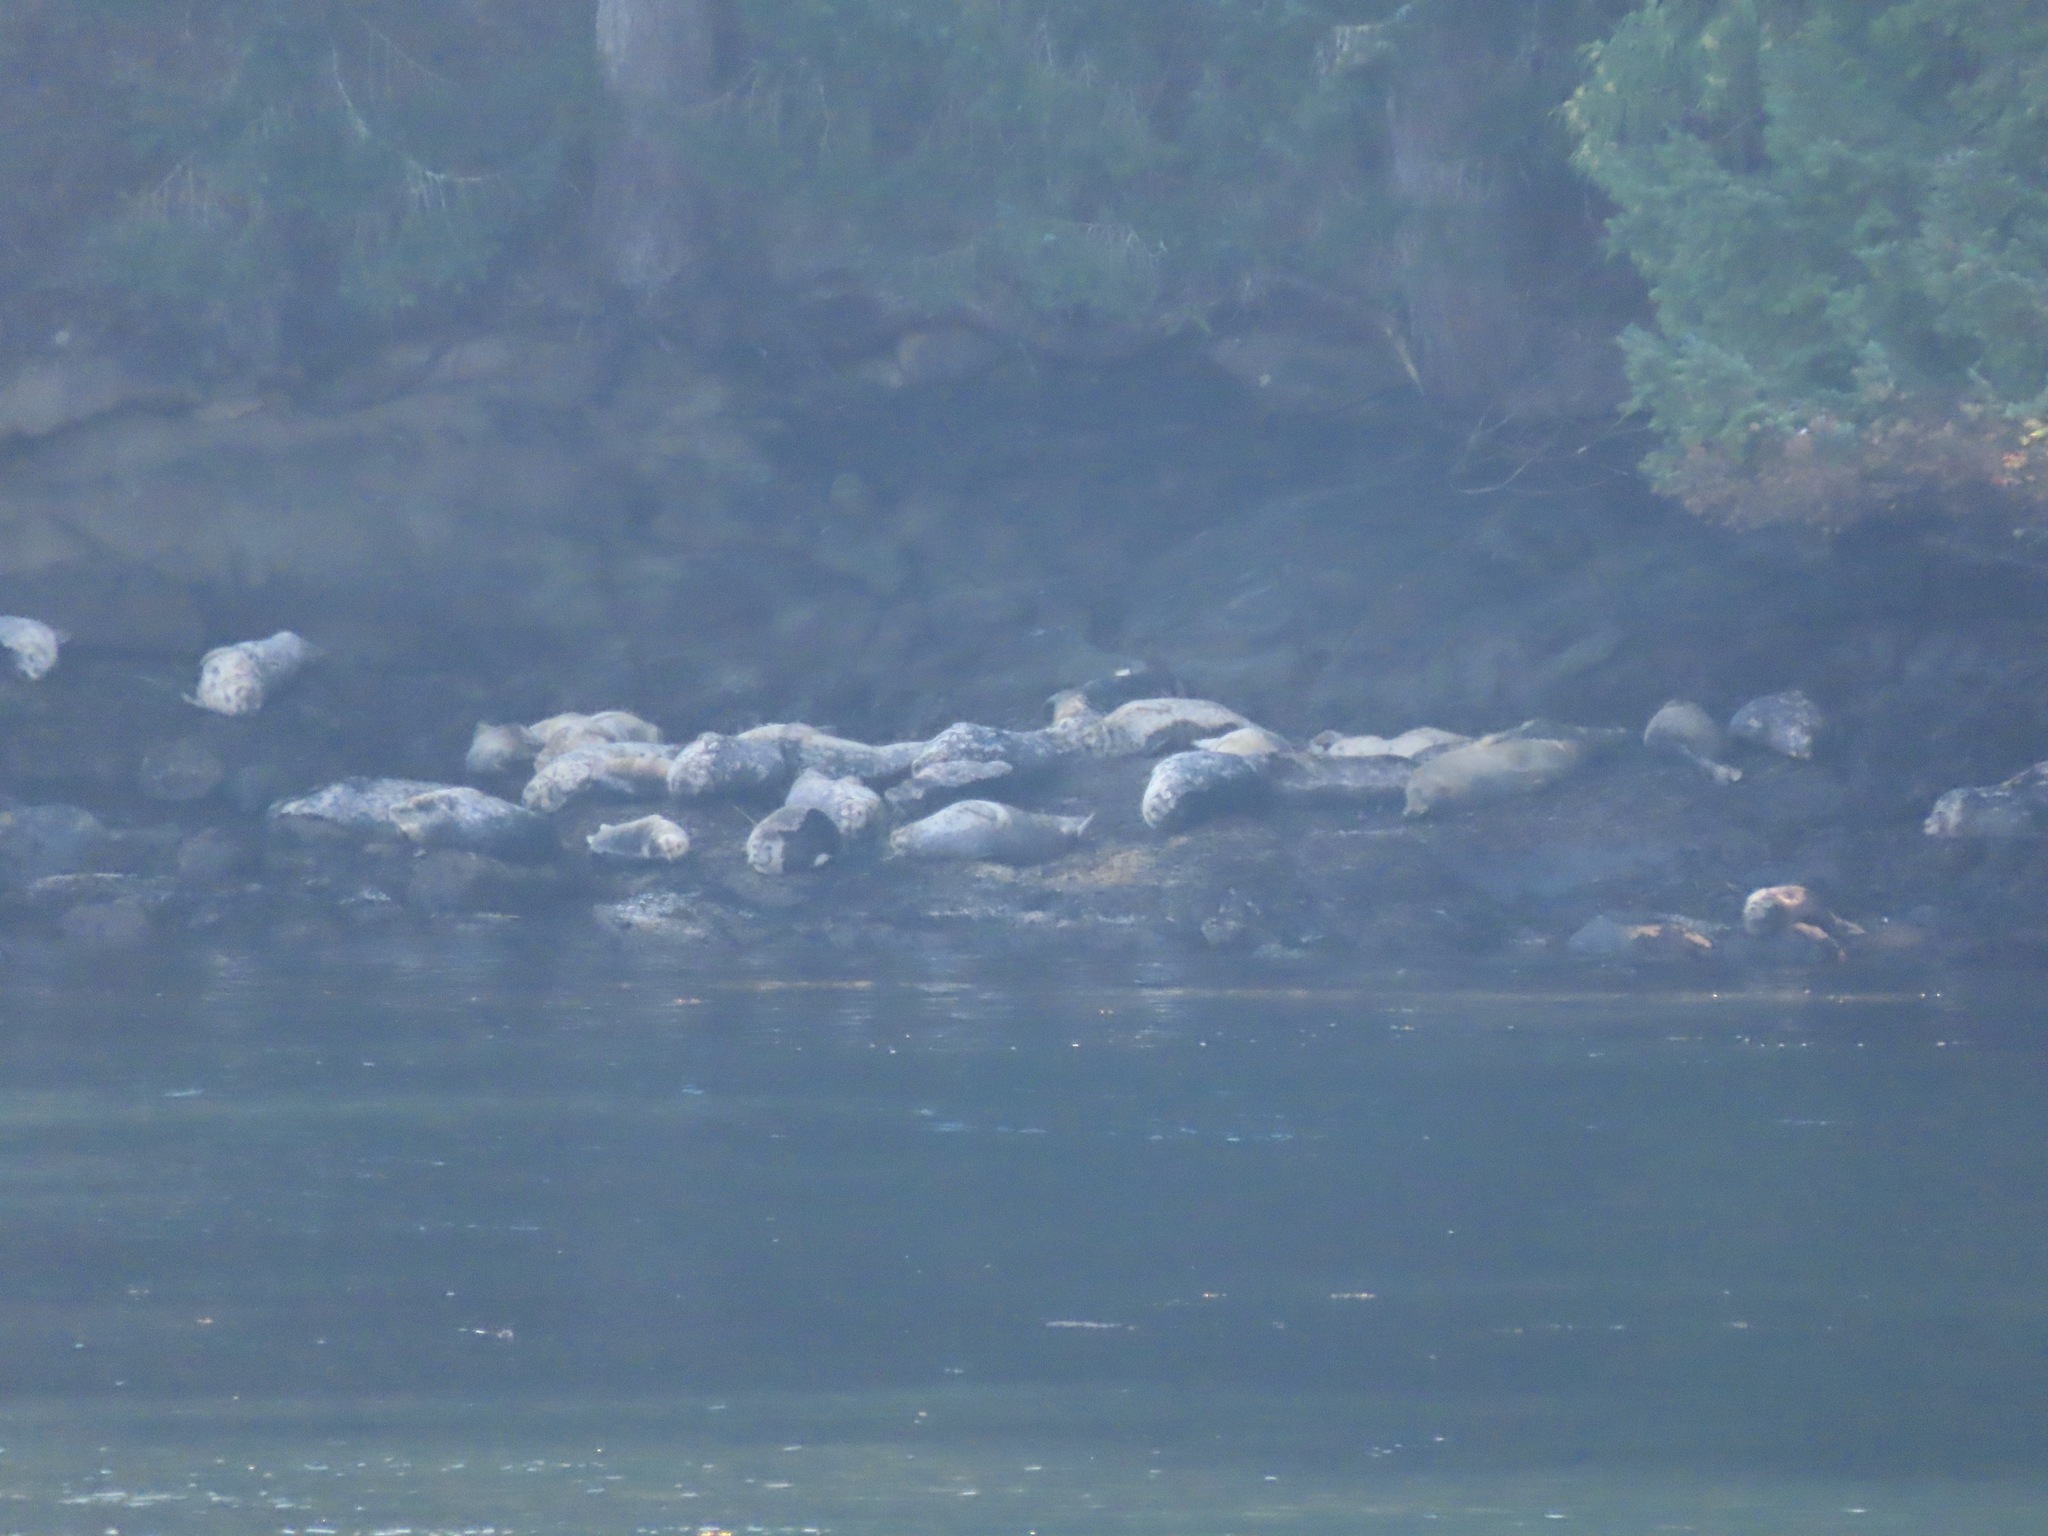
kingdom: Animalia
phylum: Chordata
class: Mammalia
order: Carnivora
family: Phocidae
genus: Phoca
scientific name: Phoca vitulina
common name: Harbor seal
